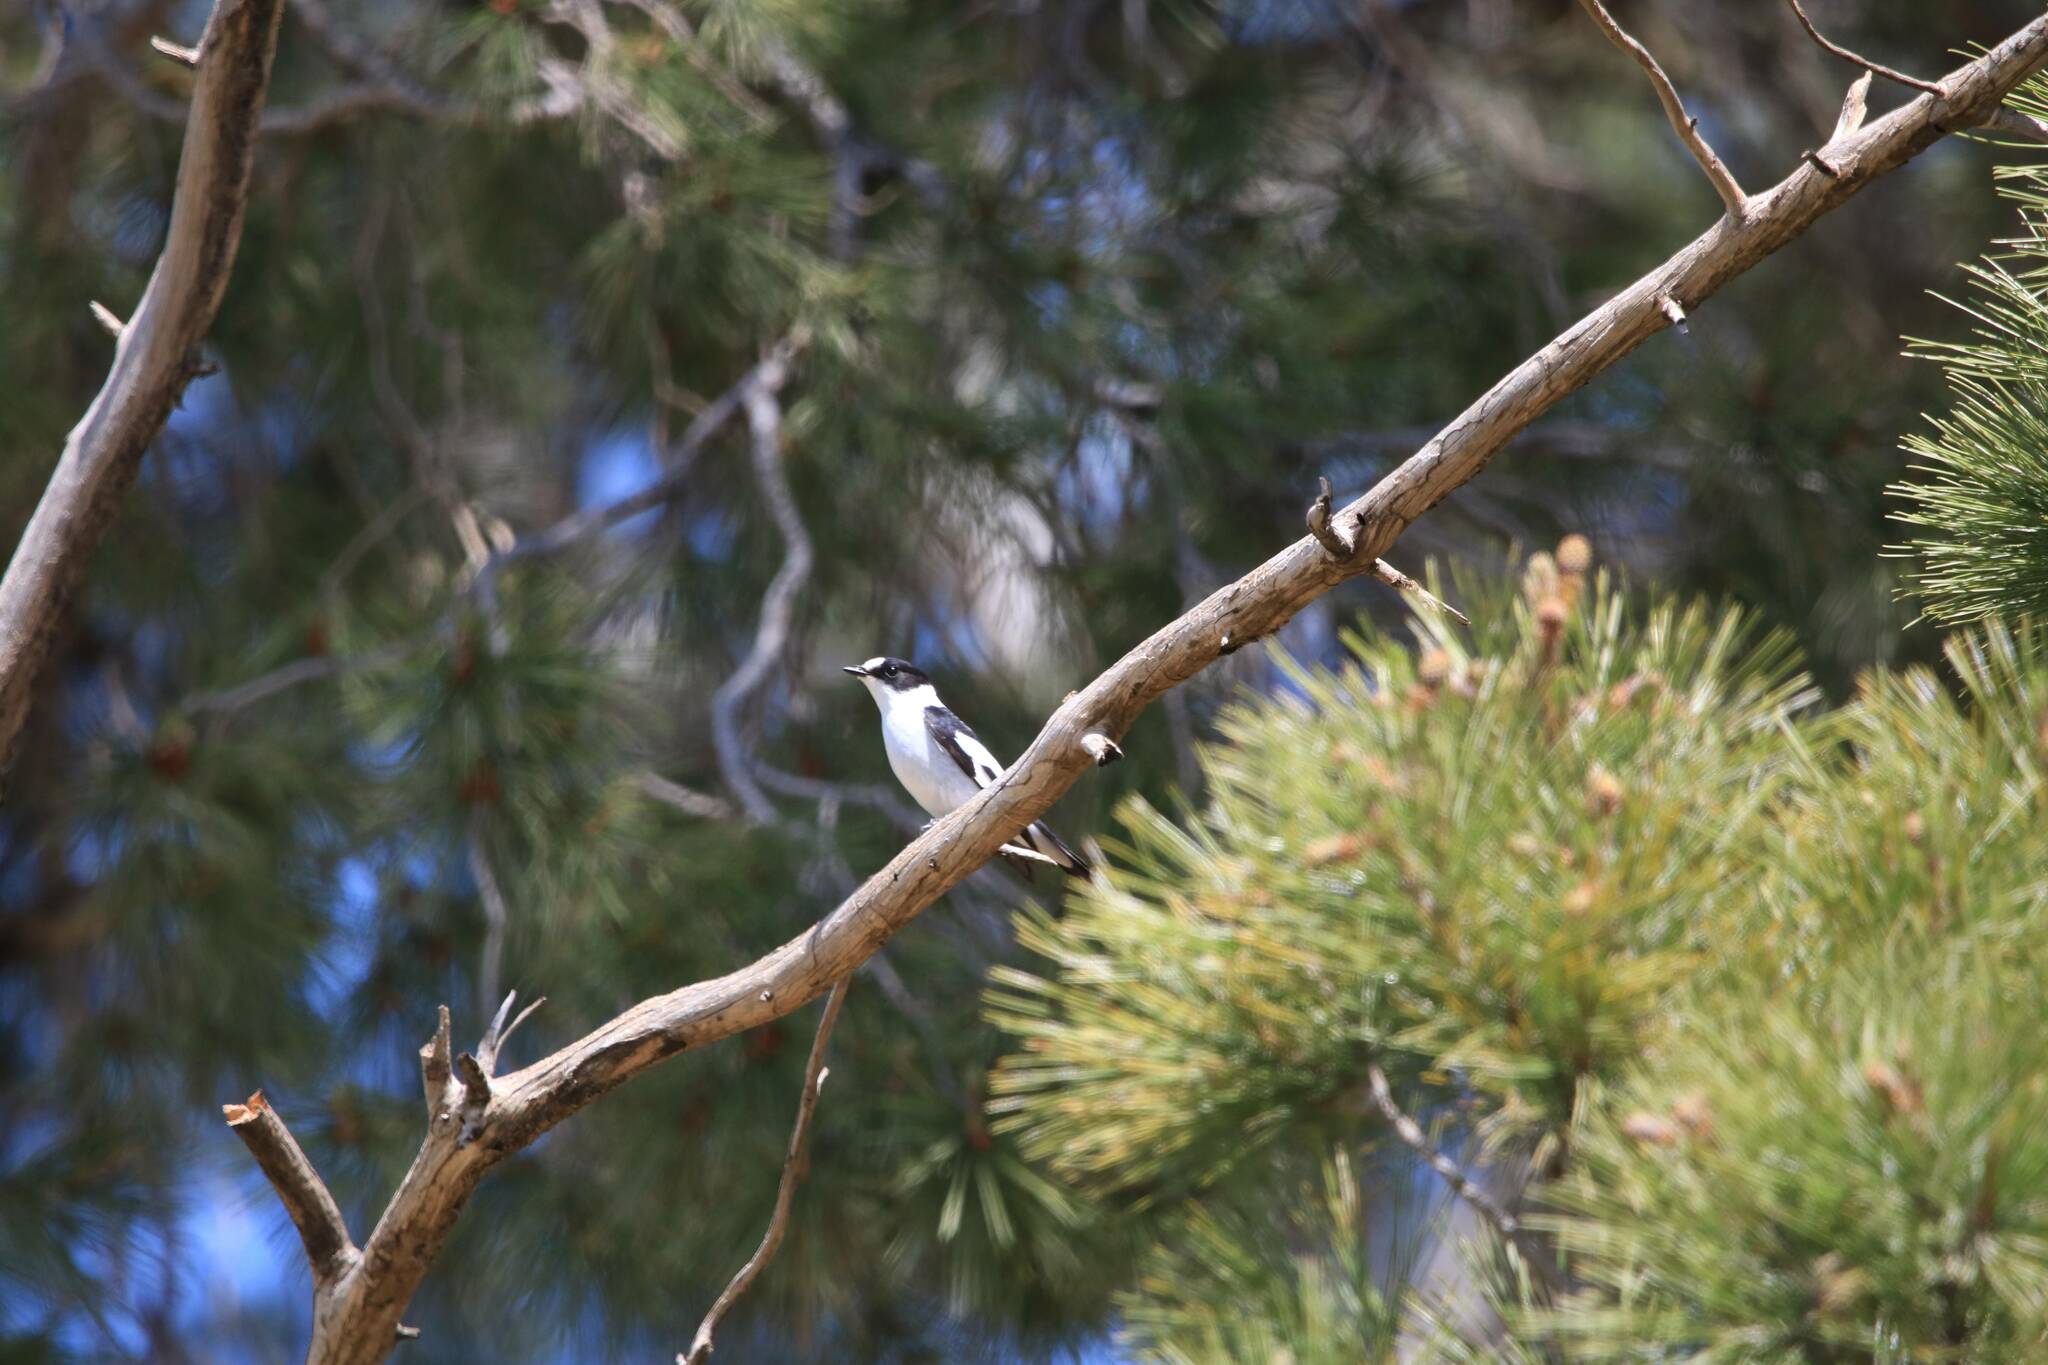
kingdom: Animalia
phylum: Chordata
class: Aves
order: Passeriformes
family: Muscicapidae
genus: Ficedula
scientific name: Ficedula albicollis
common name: Collared flycatcher
